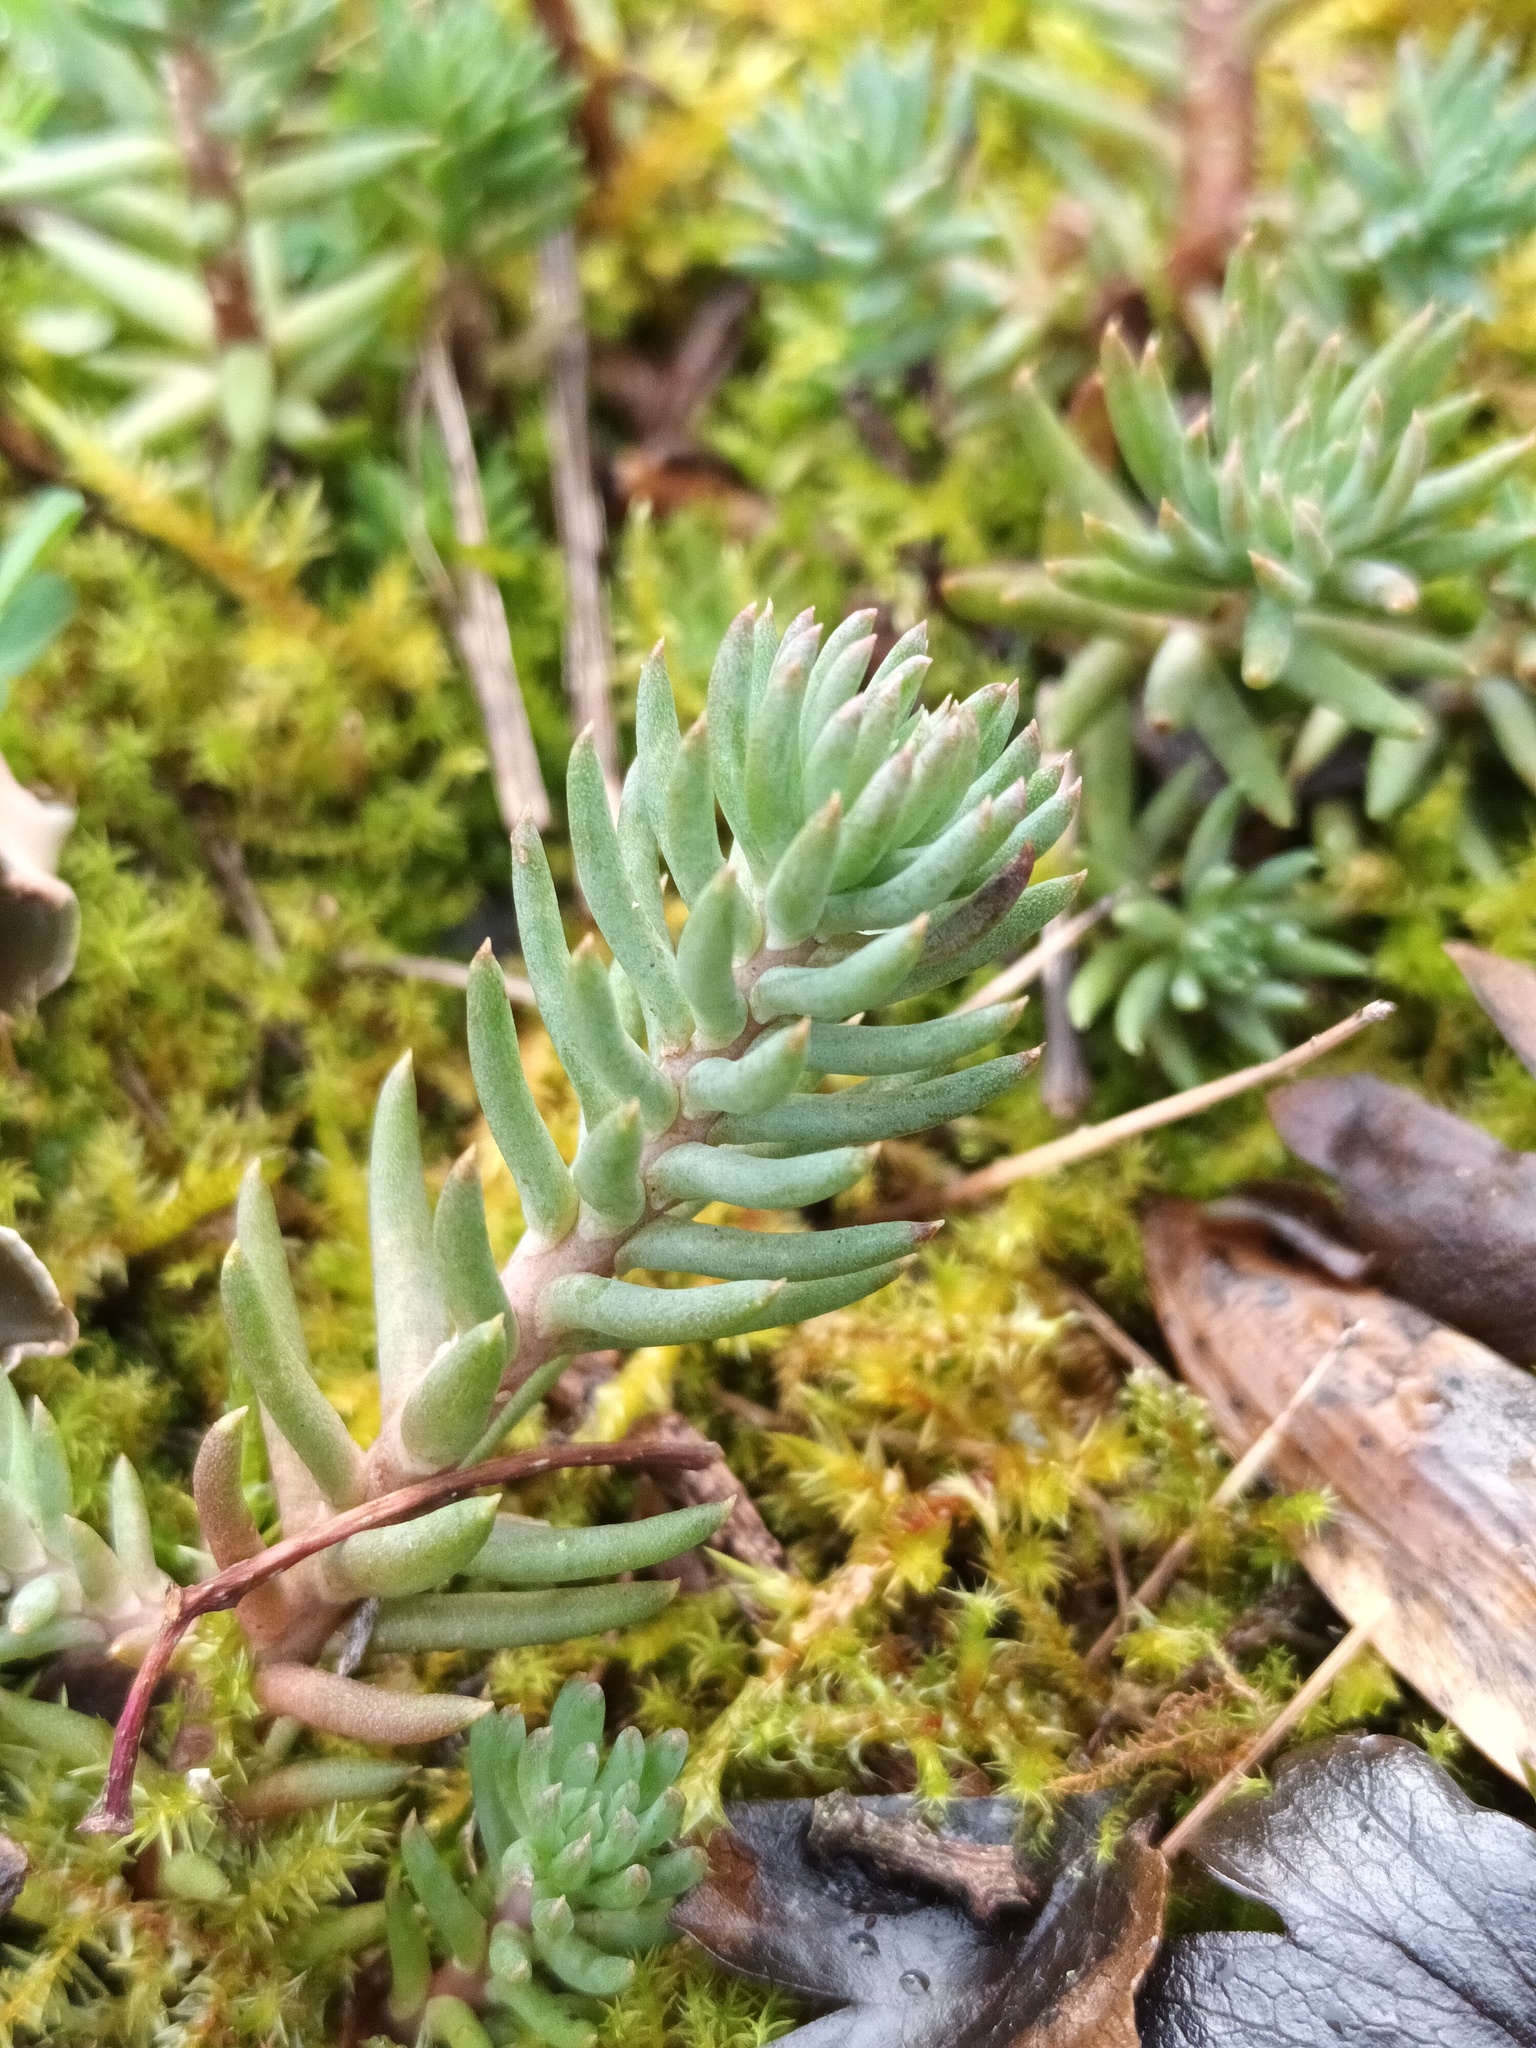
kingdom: Plantae
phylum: Tracheophyta
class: Magnoliopsida
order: Saxifragales
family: Crassulaceae
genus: Petrosedum
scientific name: Petrosedum rupestre
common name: Jenny's stonecrop
